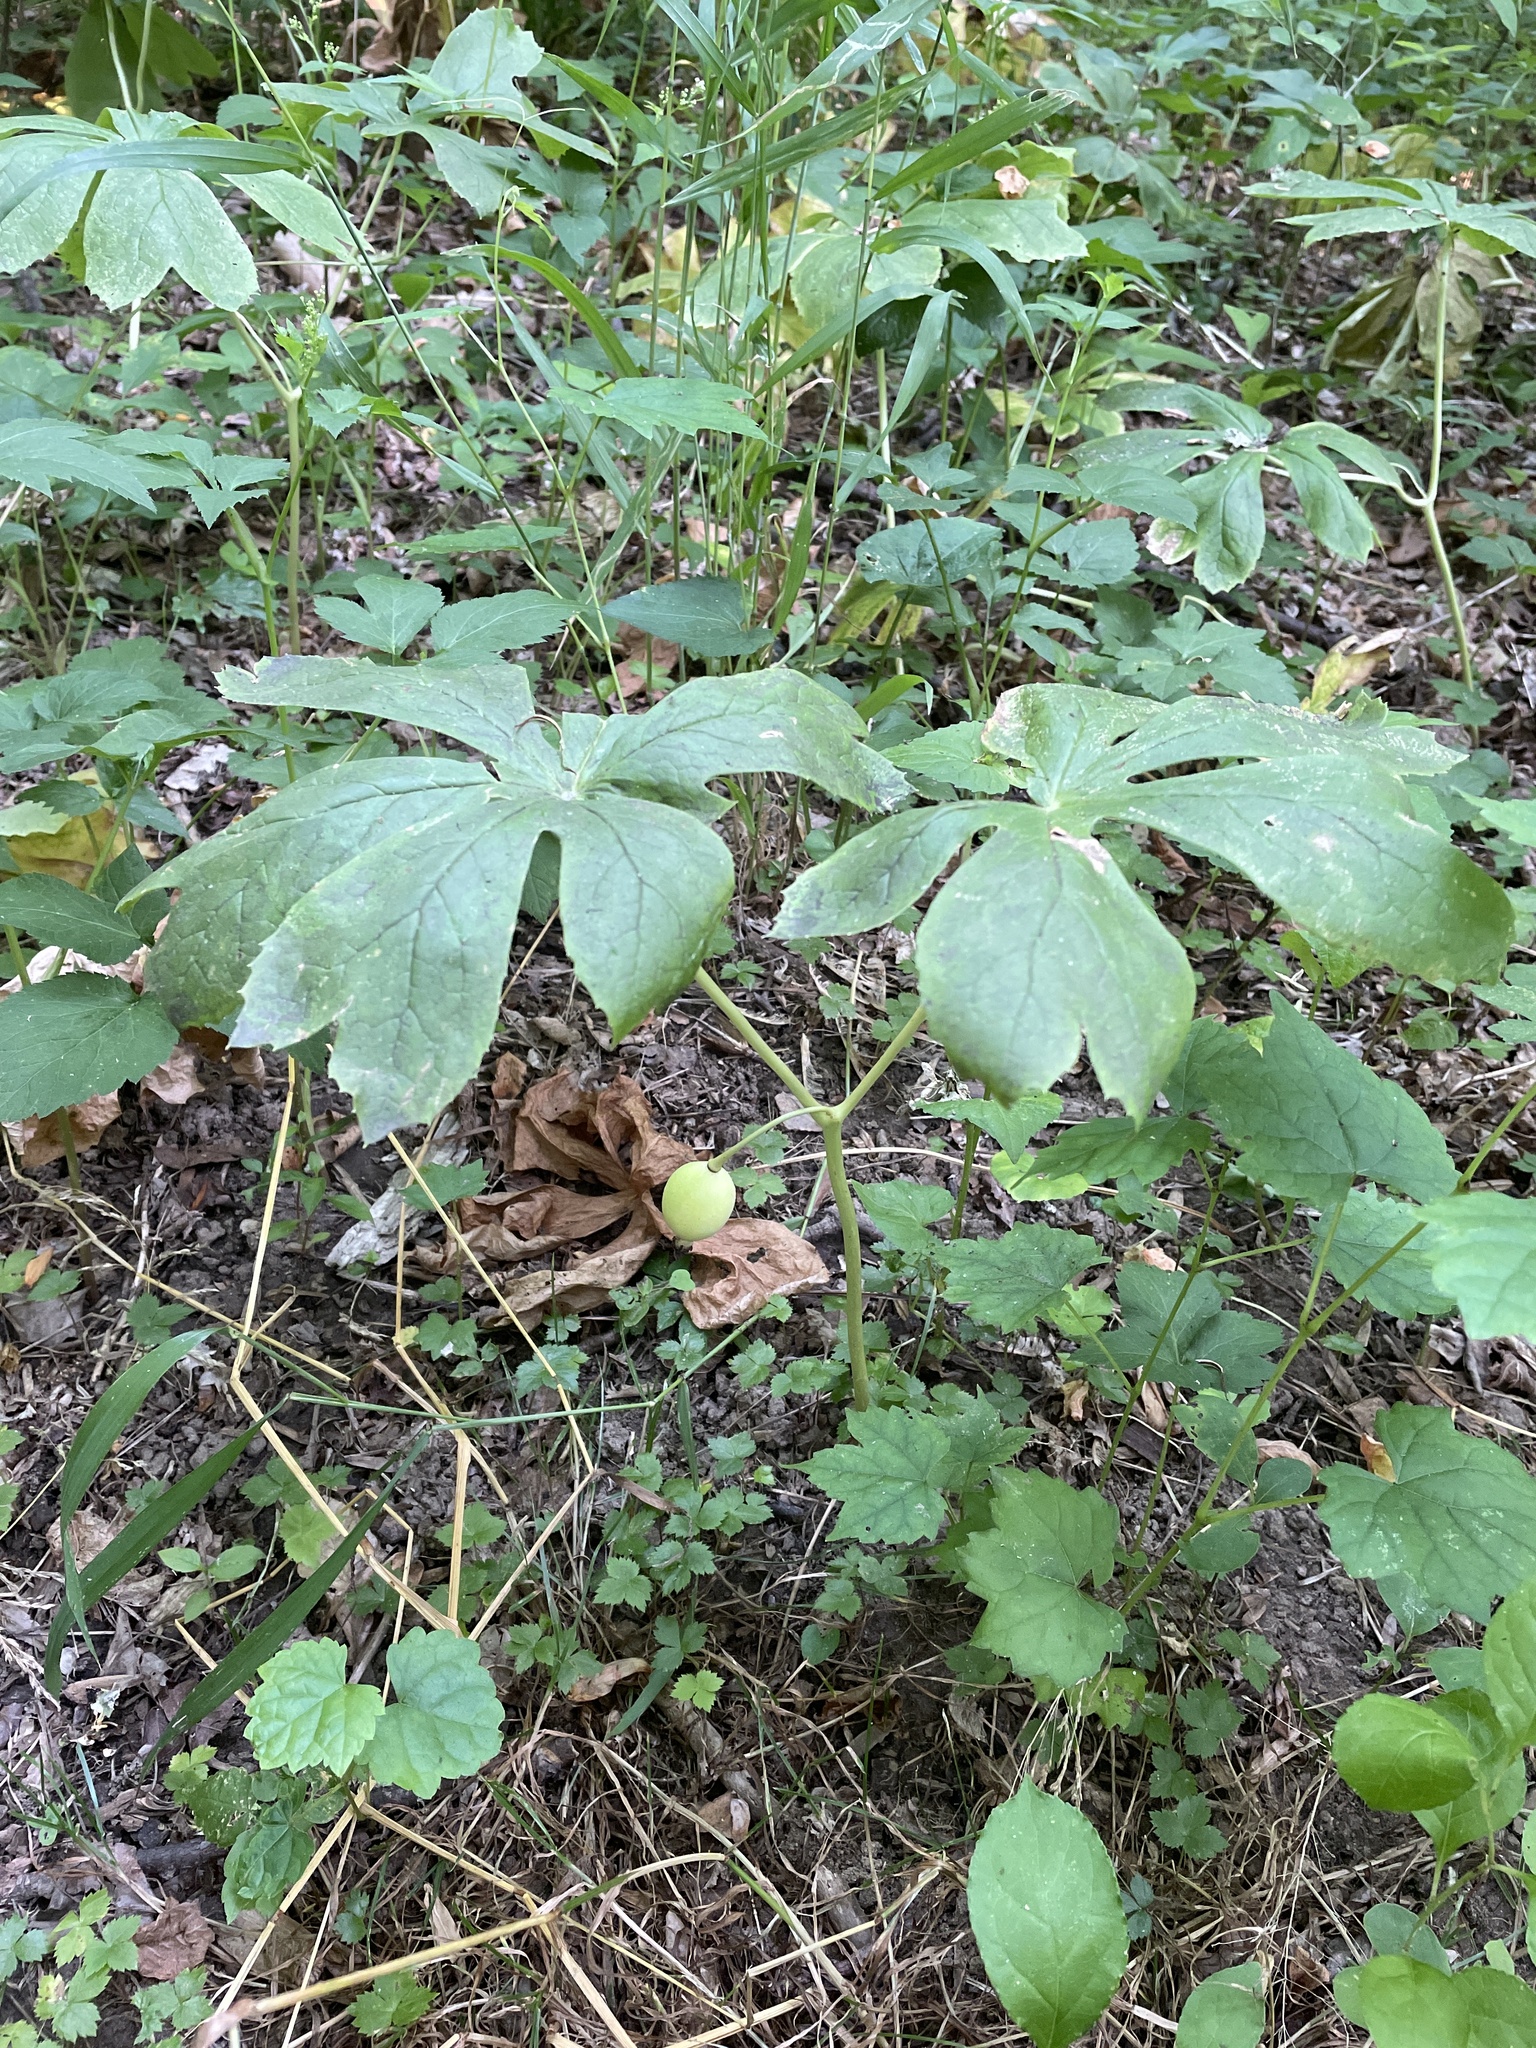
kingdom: Plantae
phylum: Tracheophyta
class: Magnoliopsida
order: Ranunculales
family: Berberidaceae
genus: Podophyllum
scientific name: Podophyllum peltatum
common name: Wild mandrake
